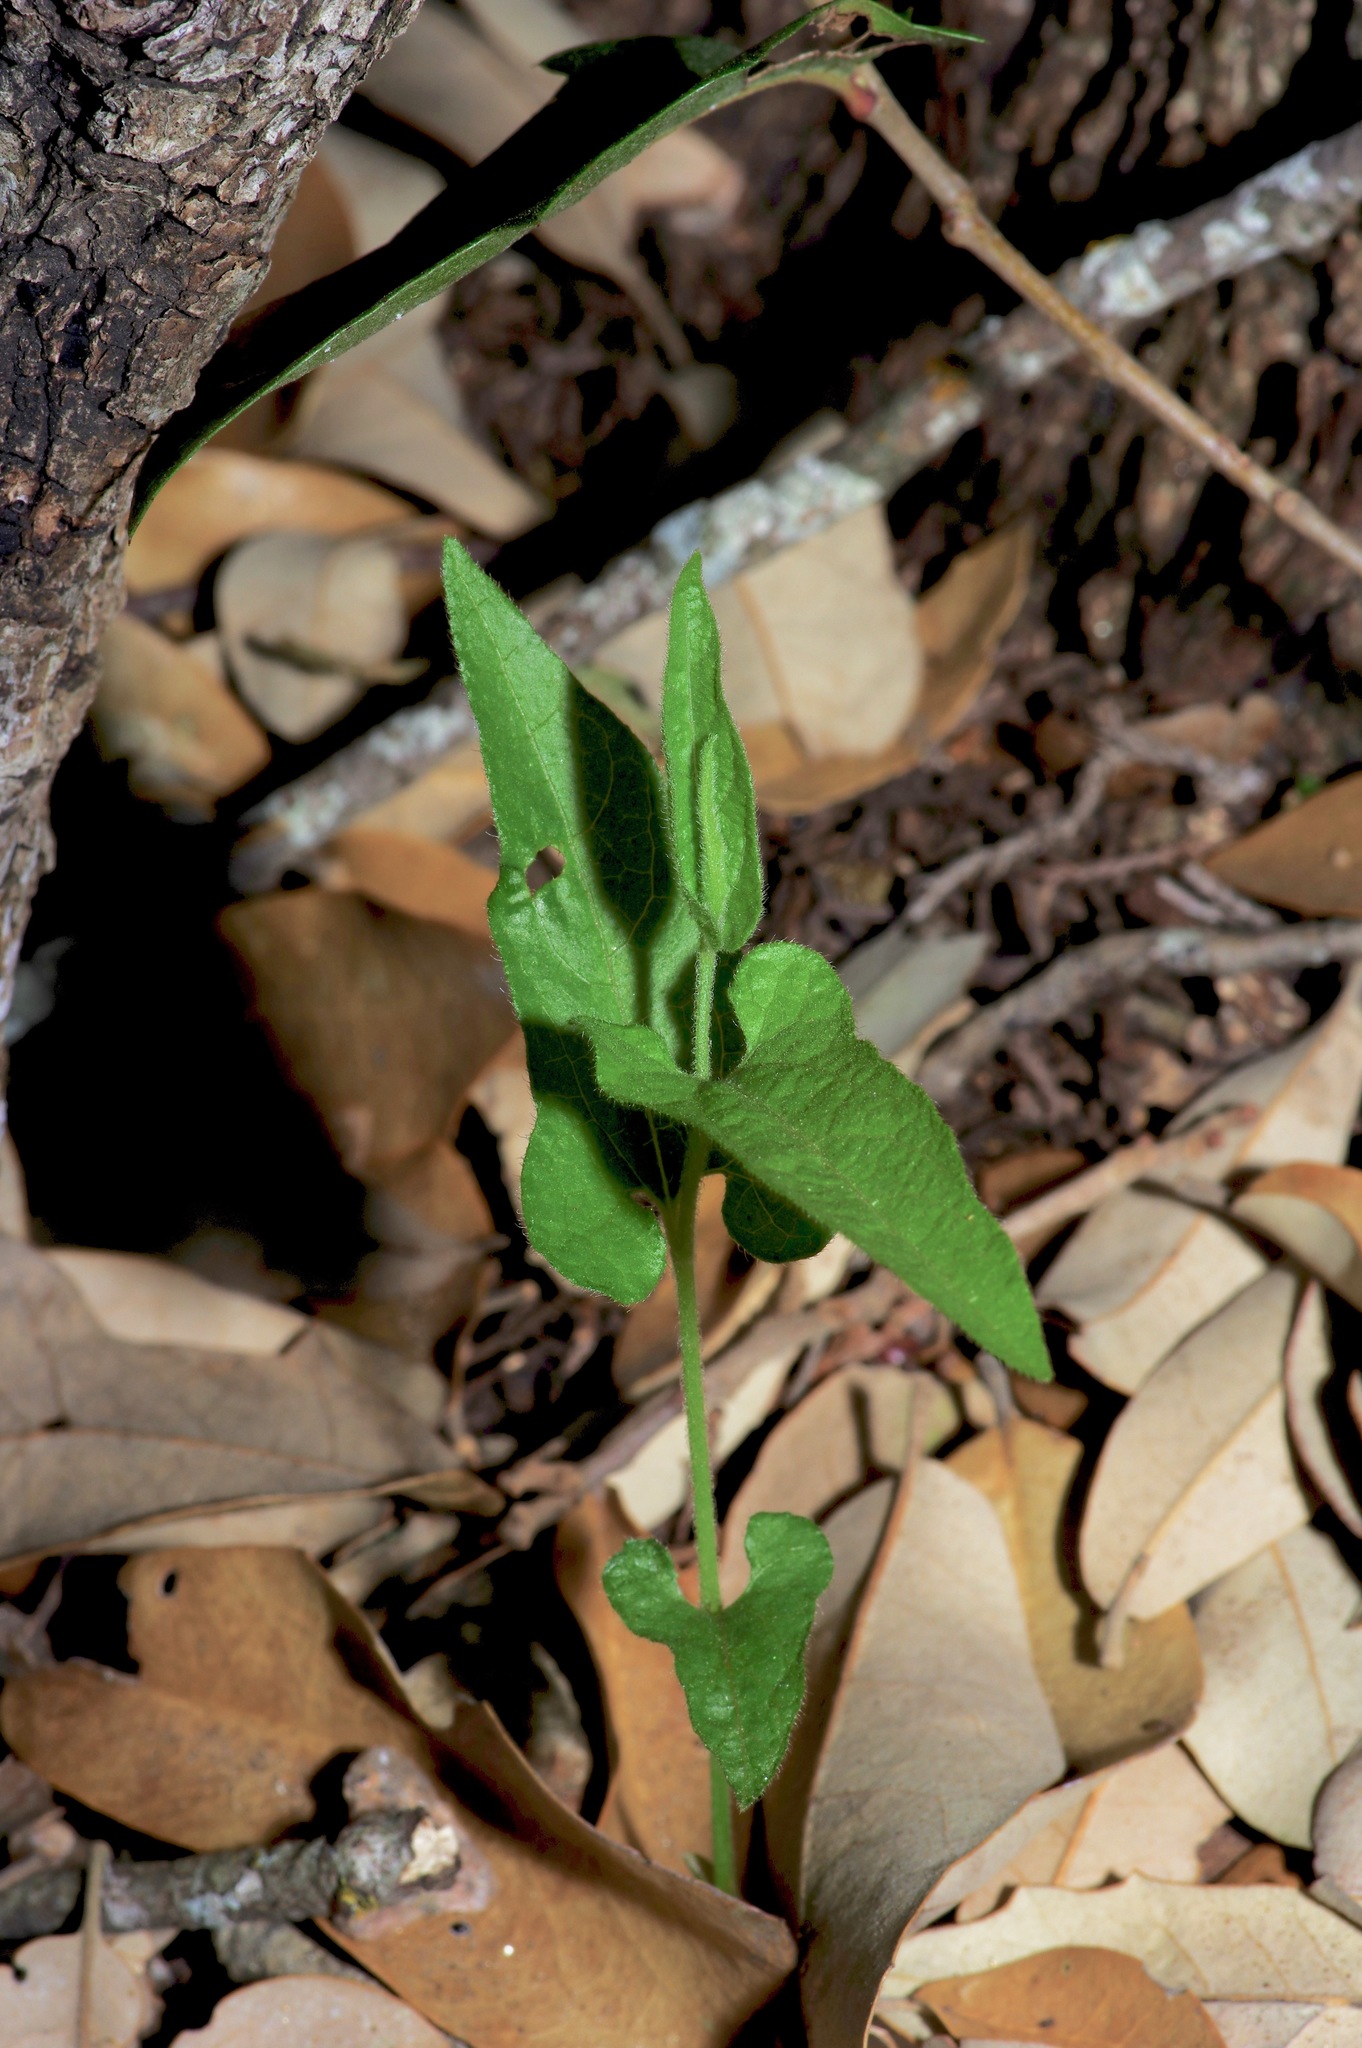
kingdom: Plantae
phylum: Tracheophyta
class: Magnoliopsida
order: Piperales
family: Aristolochiaceae
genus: Endodeca
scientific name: Endodeca serpentaria
